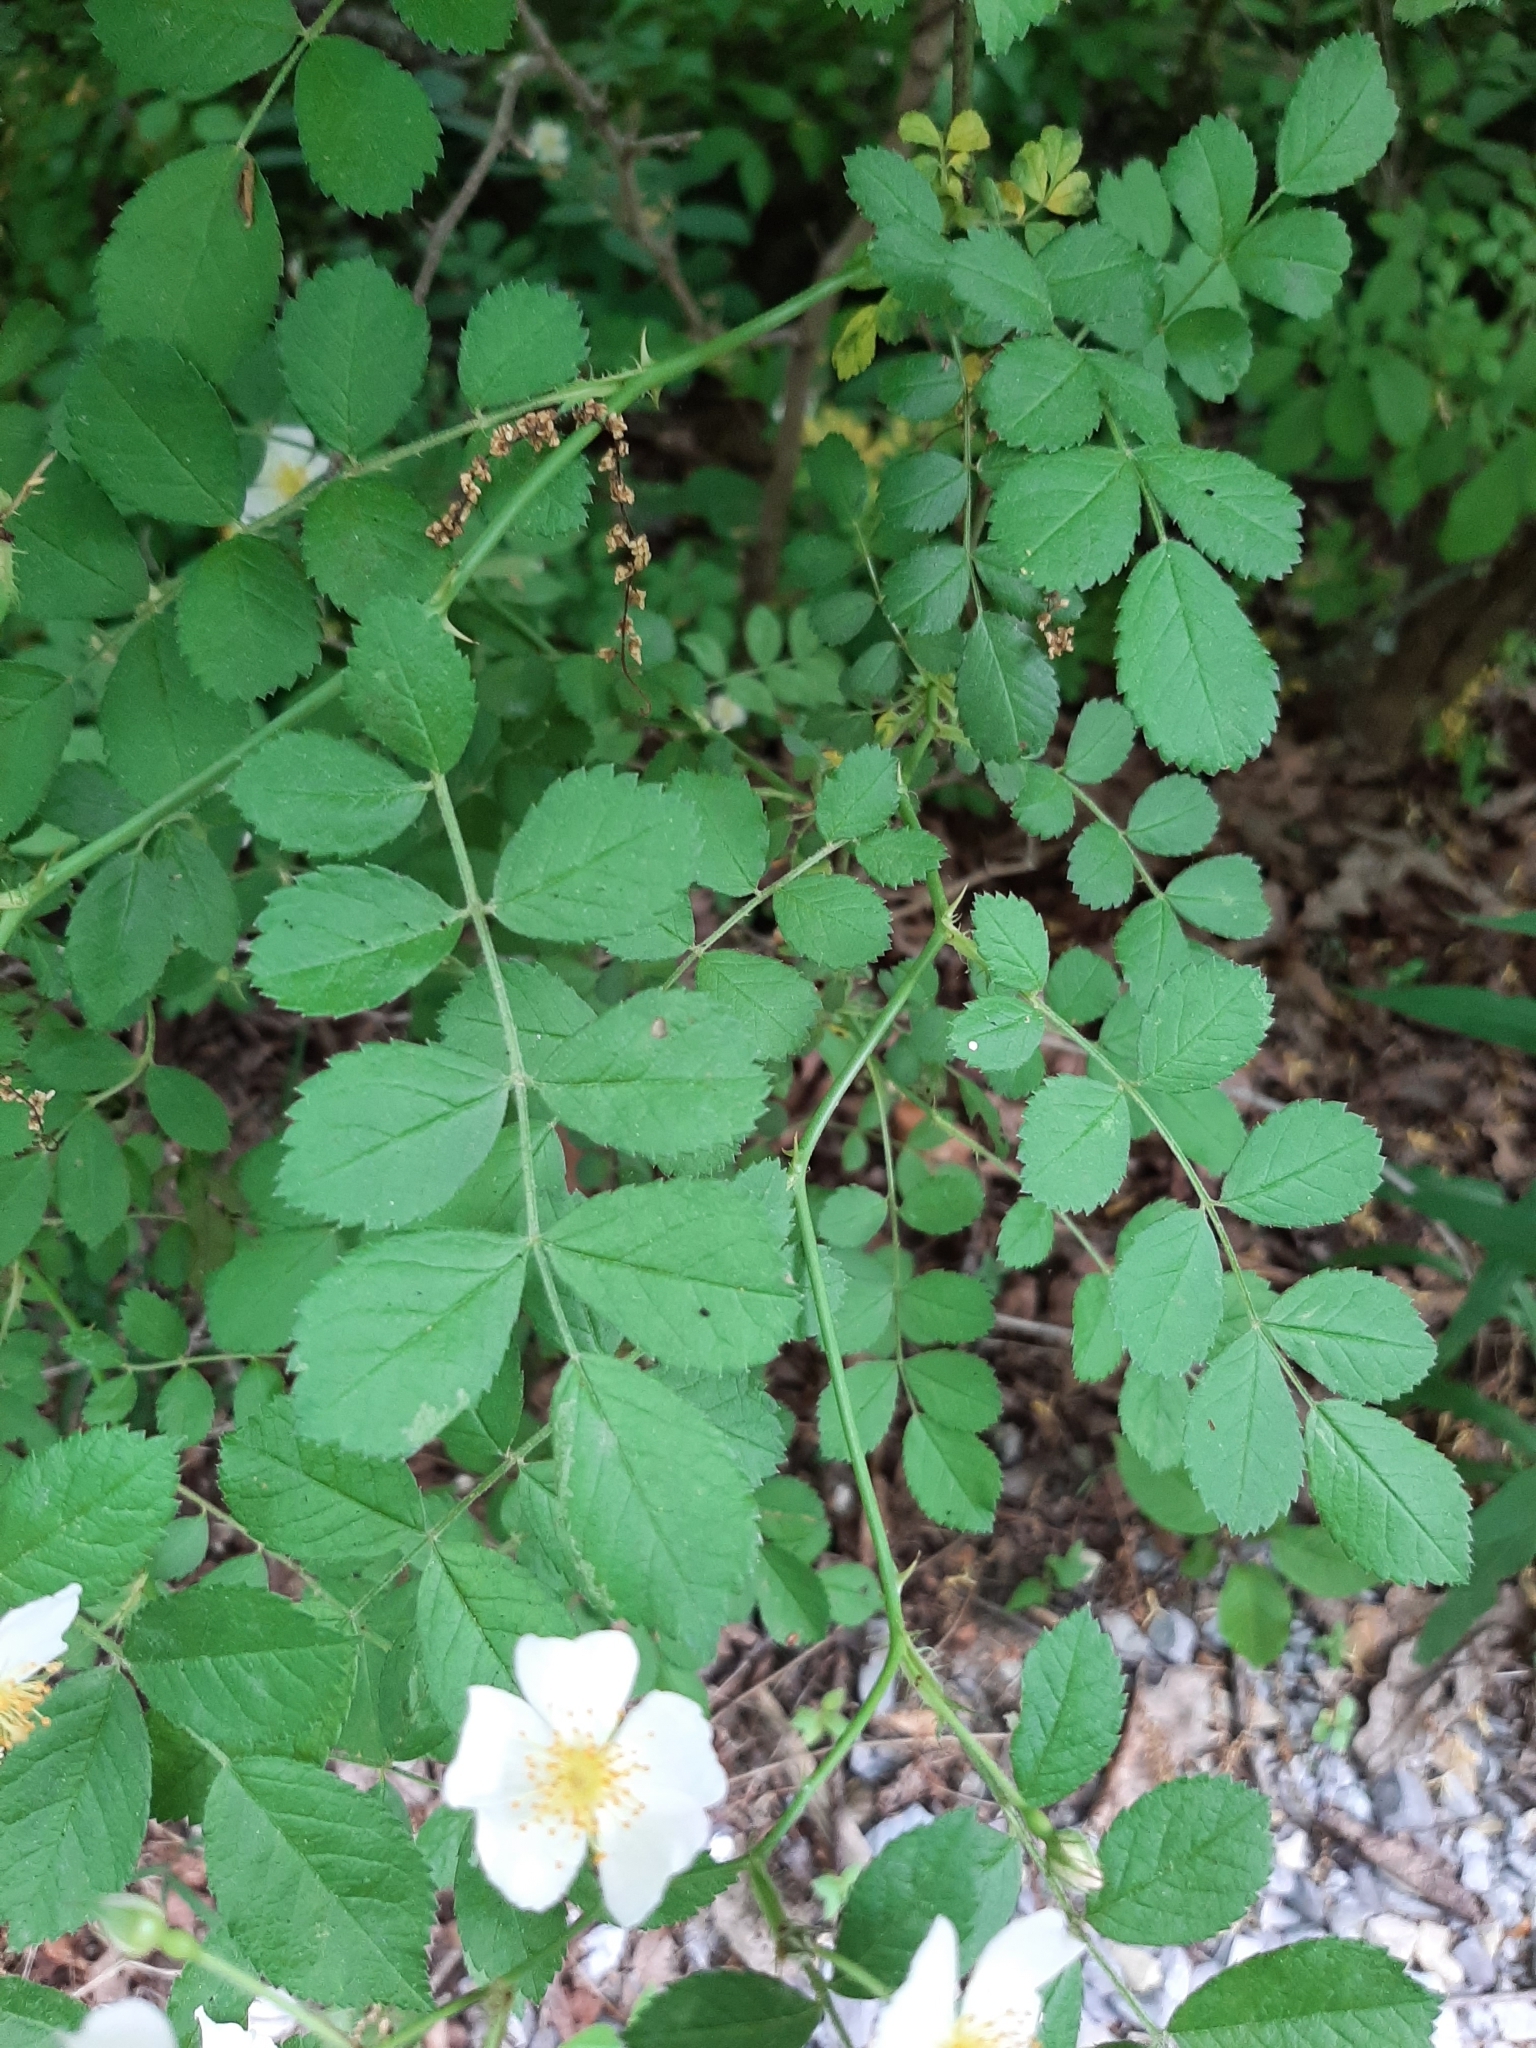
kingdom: Plantae
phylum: Tracheophyta
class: Magnoliopsida
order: Rosales
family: Rosaceae
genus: Rosa
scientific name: Rosa multiflora
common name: Multiflora rose
